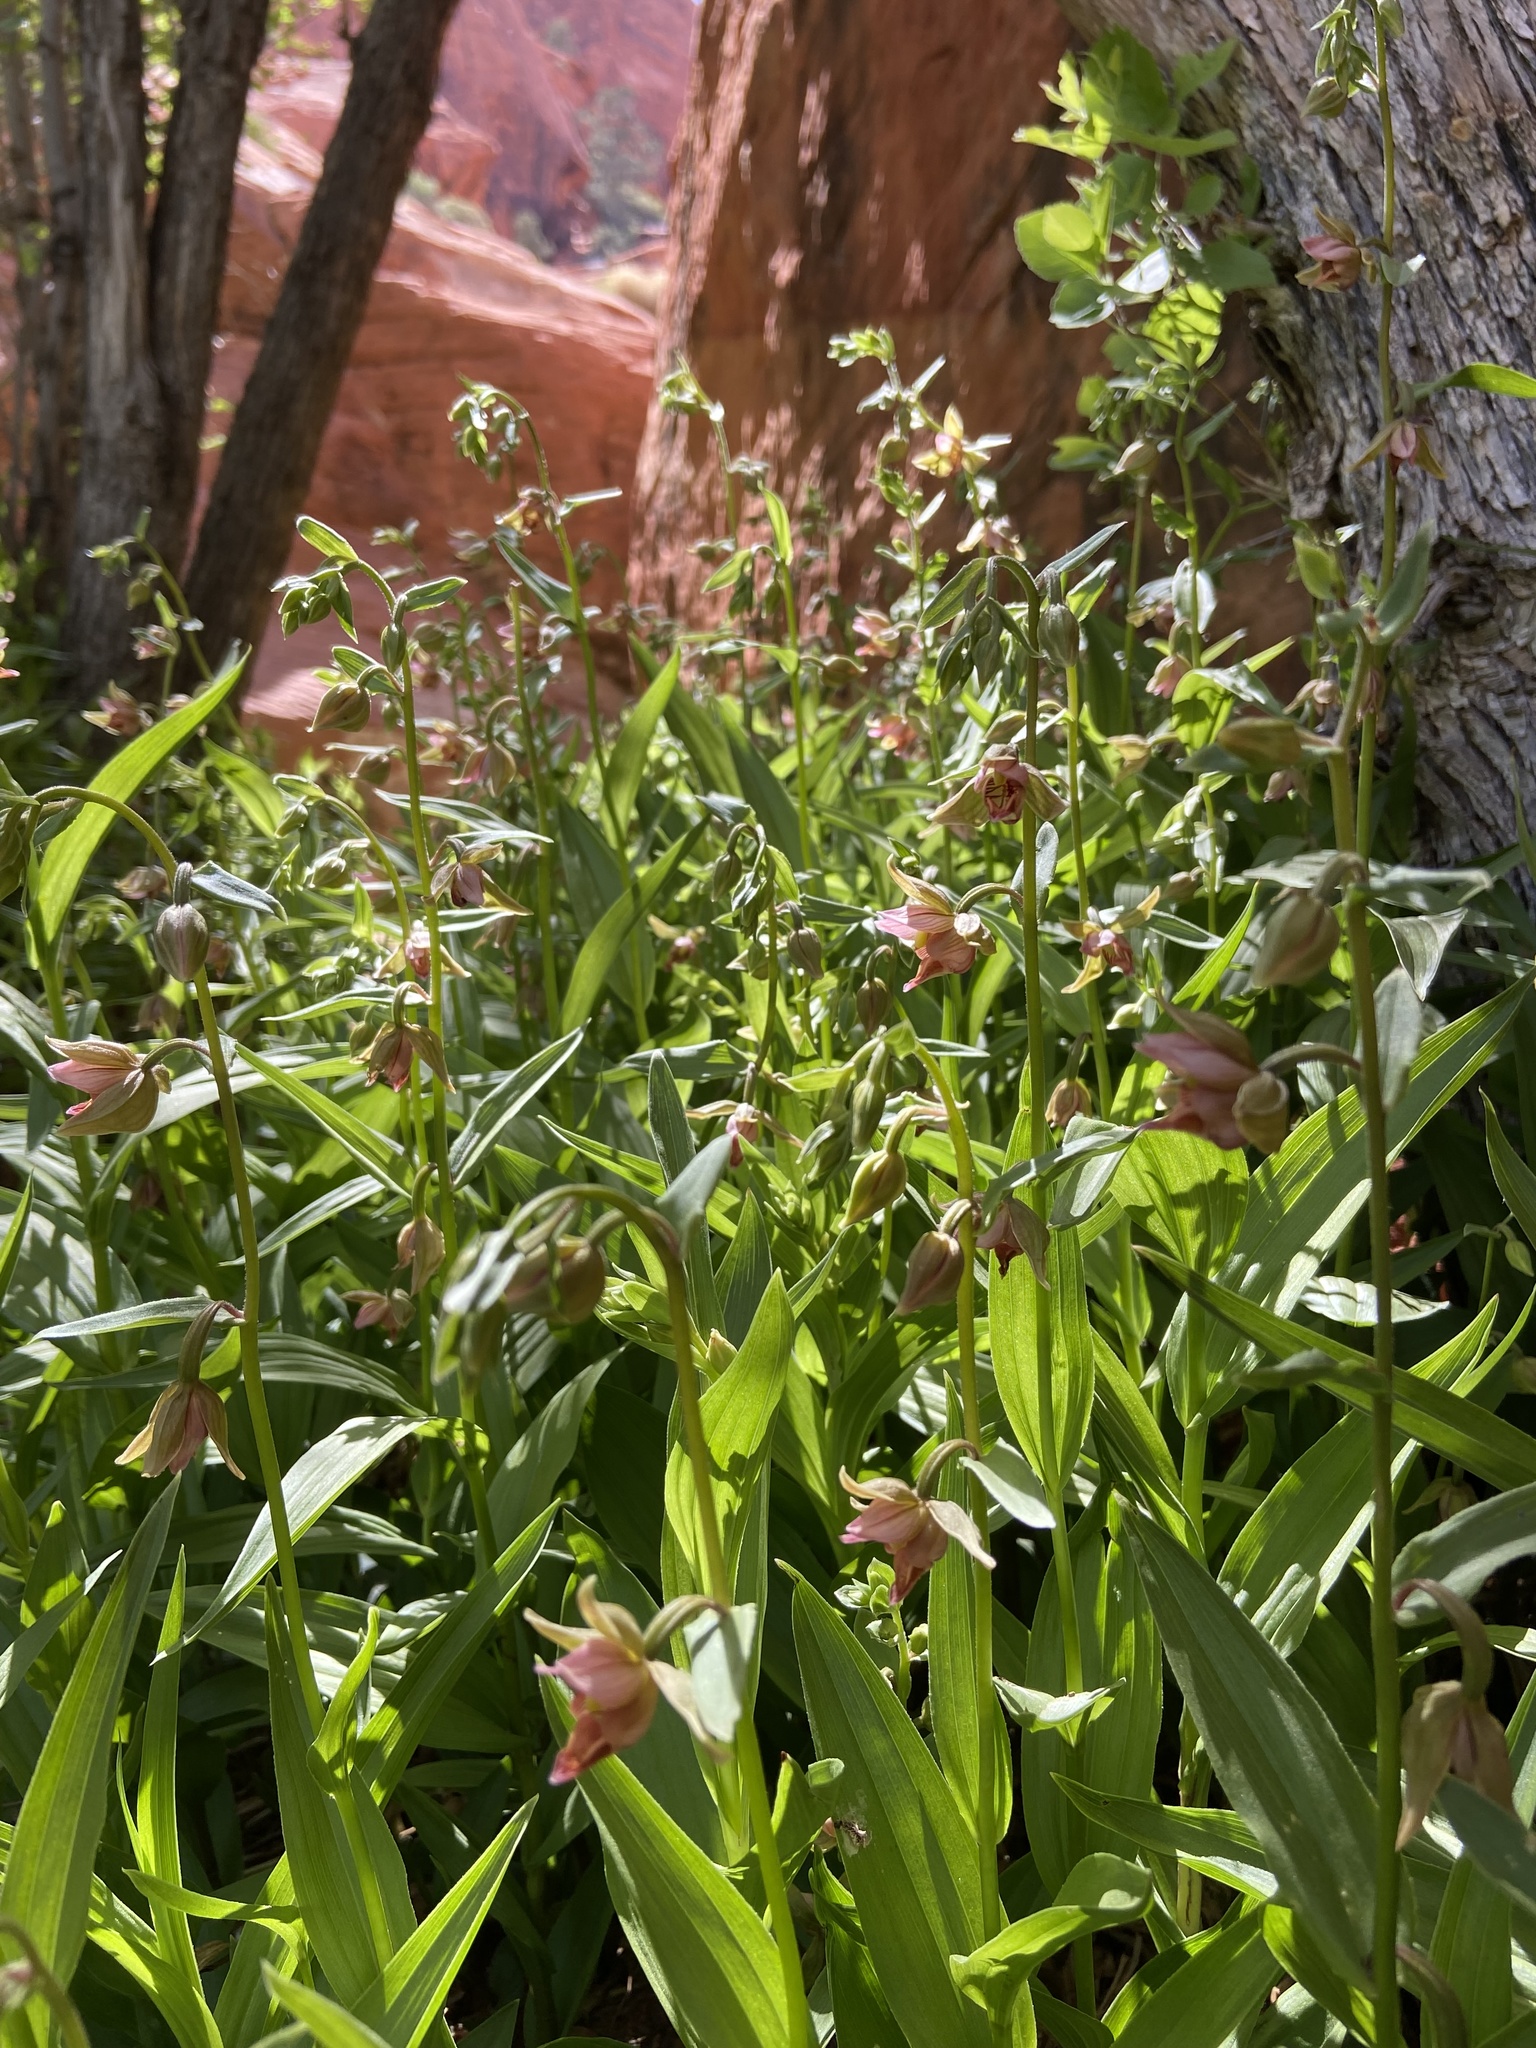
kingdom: Plantae
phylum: Tracheophyta
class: Liliopsida
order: Asparagales
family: Orchidaceae
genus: Epipactis
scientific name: Epipactis gigantea
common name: Chatterbox
